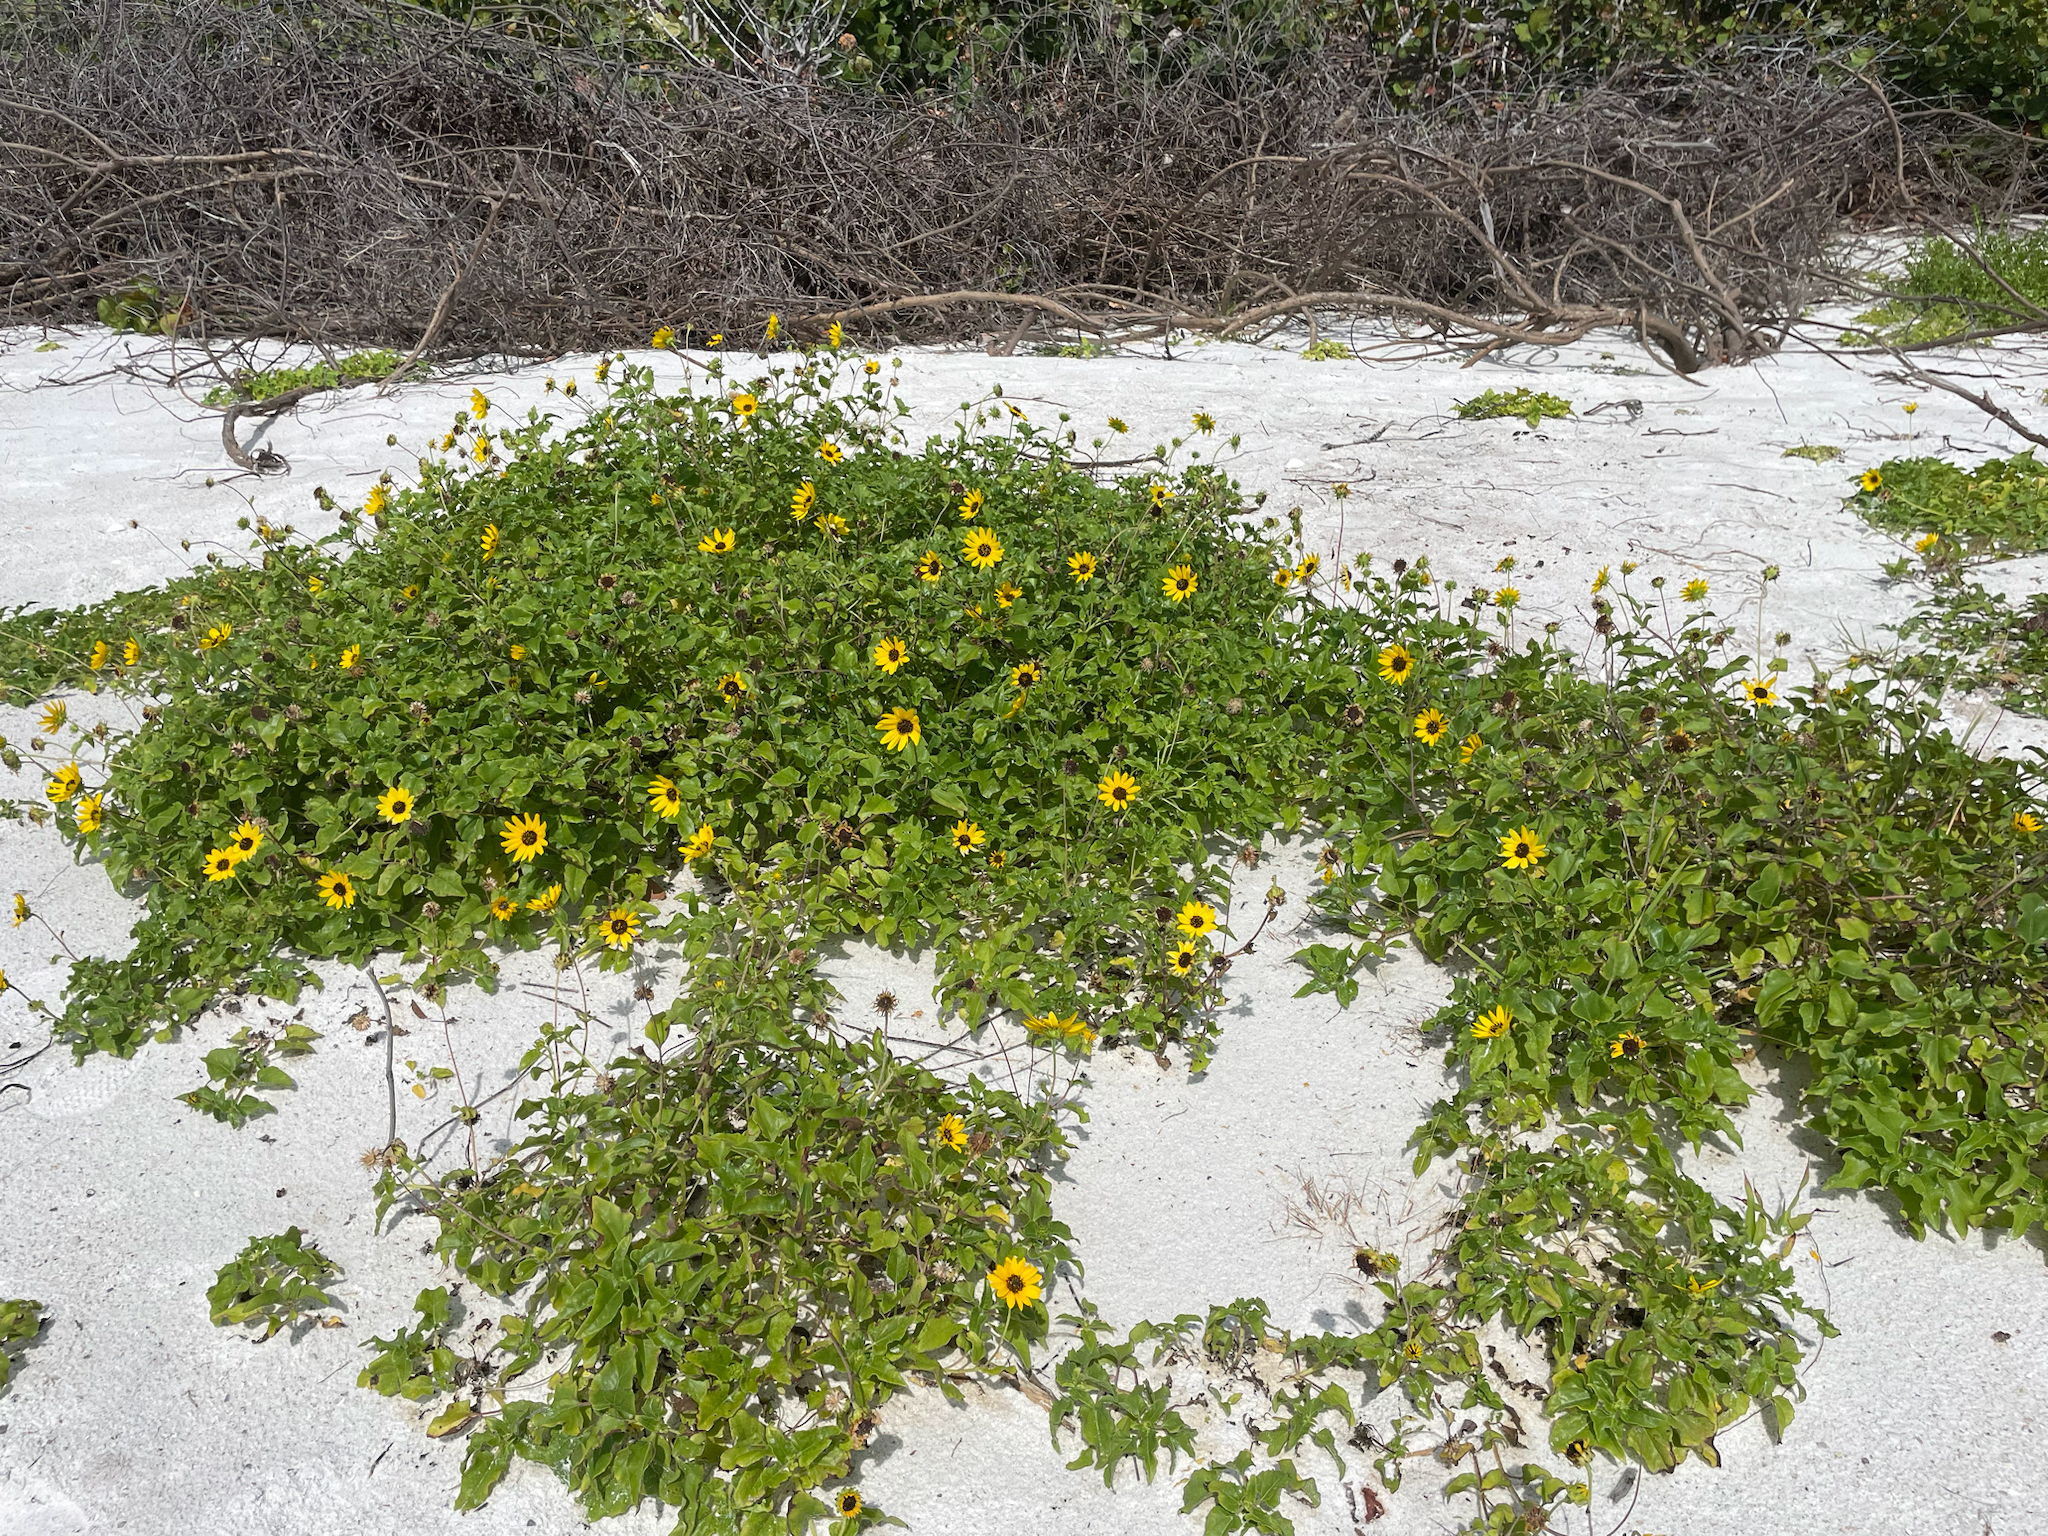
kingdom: Plantae
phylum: Tracheophyta
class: Magnoliopsida
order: Asterales
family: Asteraceae
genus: Helianthus
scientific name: Helianthus debilis
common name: Weak sunflower
